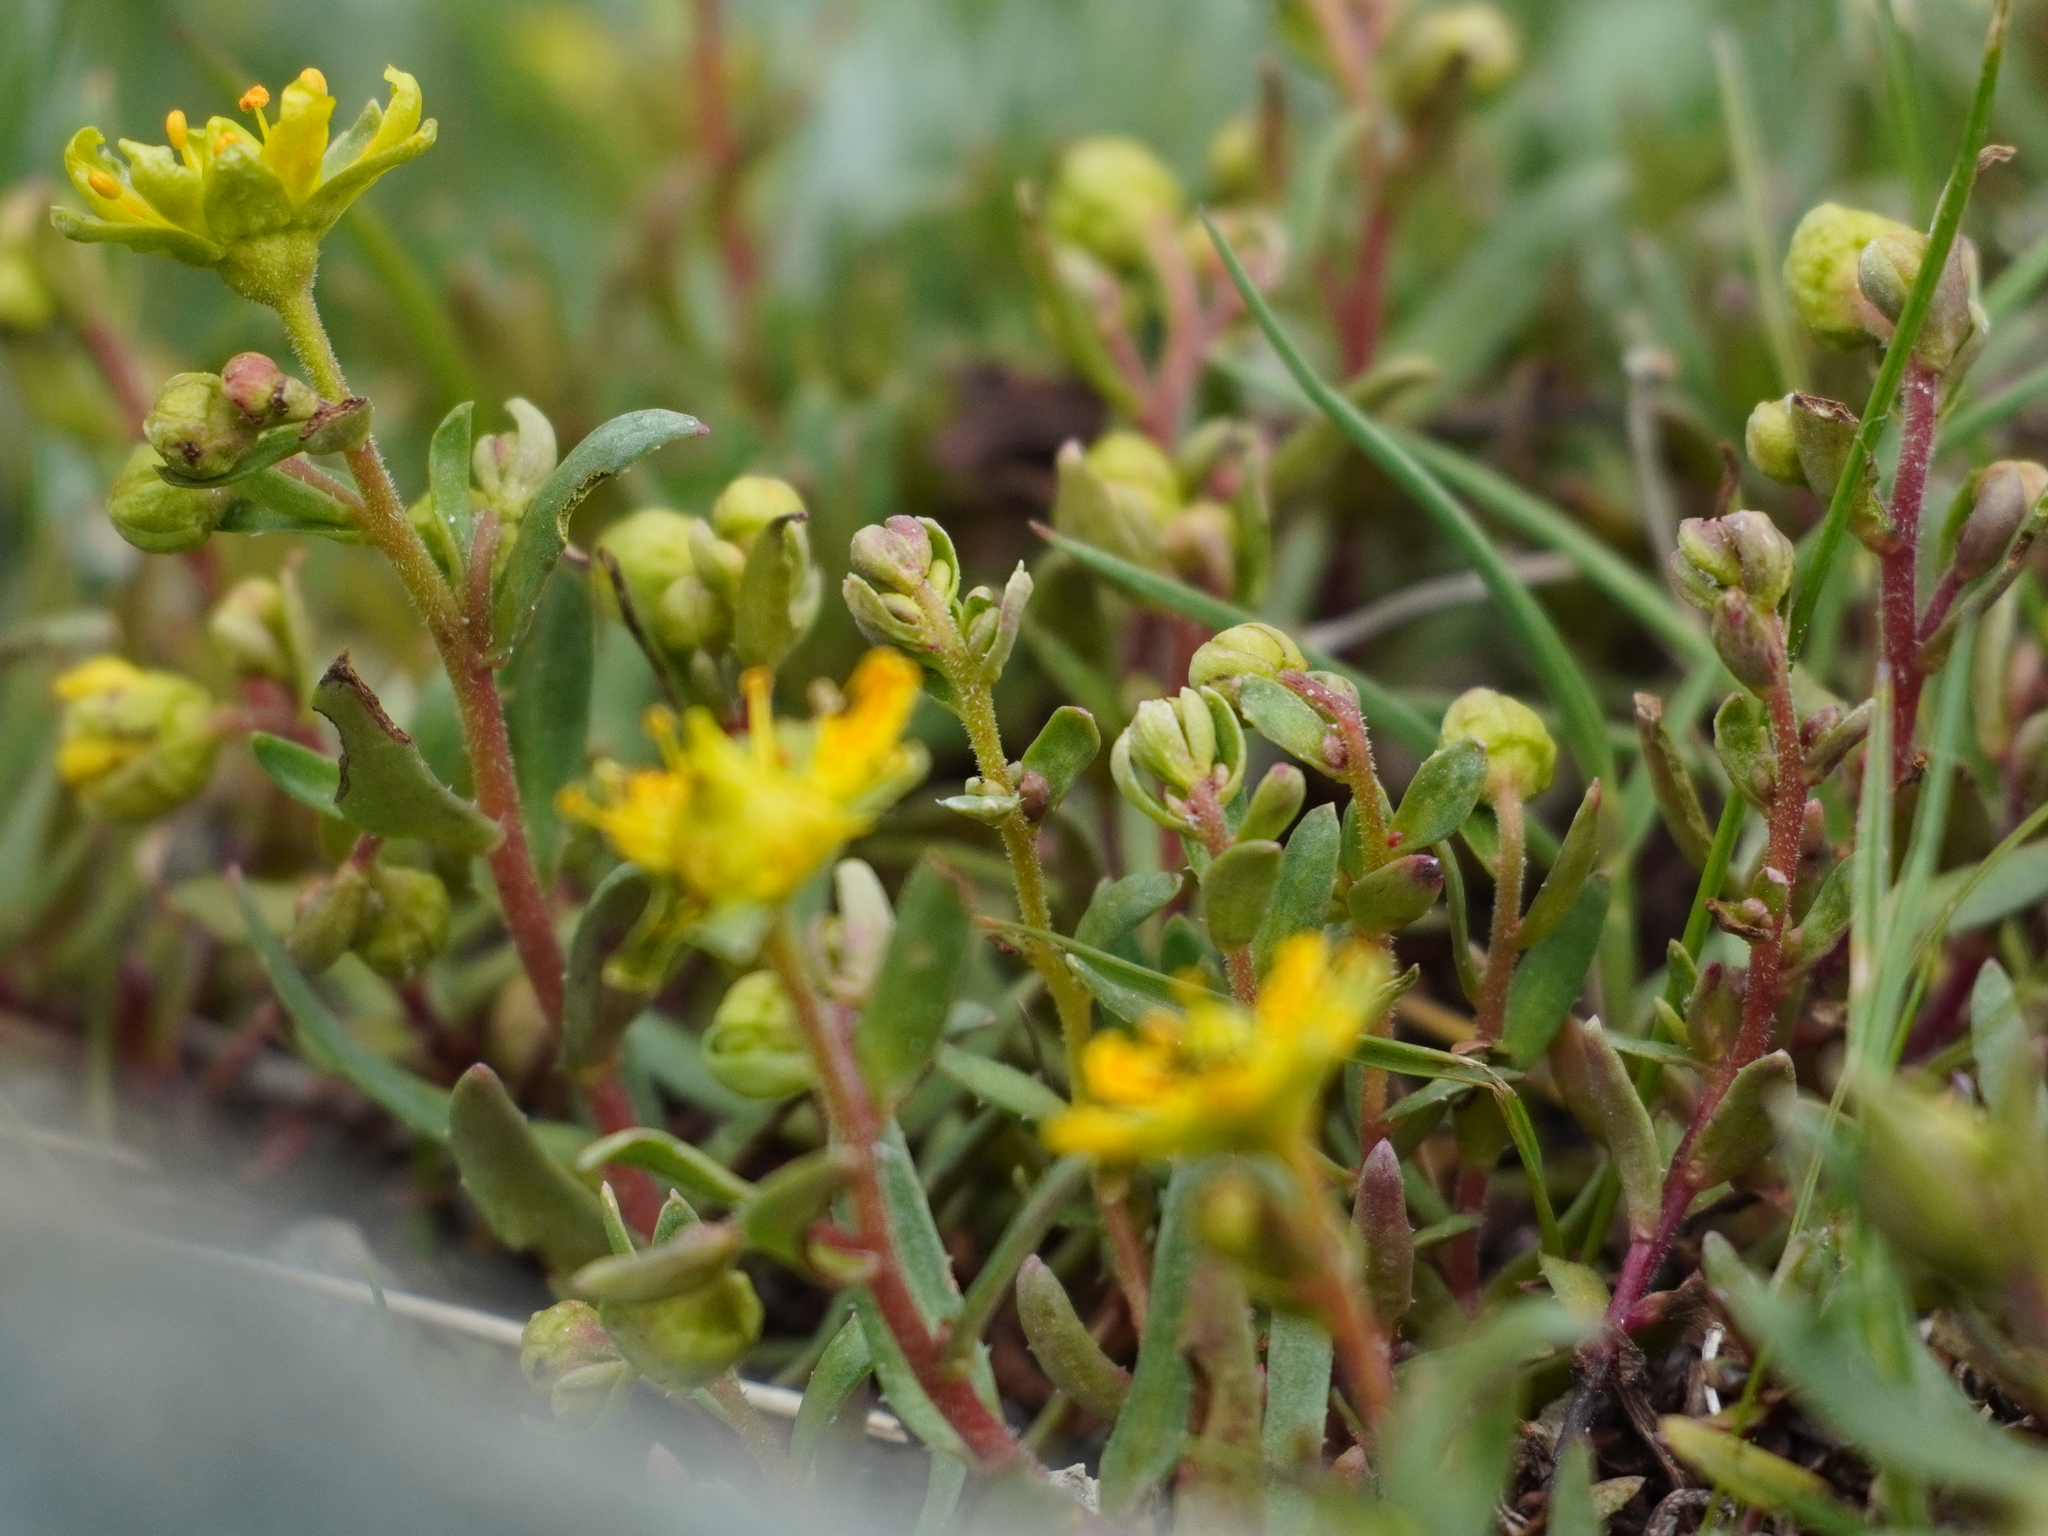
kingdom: Plantae
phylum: Tracheophyta
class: Magnoliopsida
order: Saxifragales
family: Saxifragaceae
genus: Saxifraga
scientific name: Saxifraga aizoides
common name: Yellow mountain saxifrage
